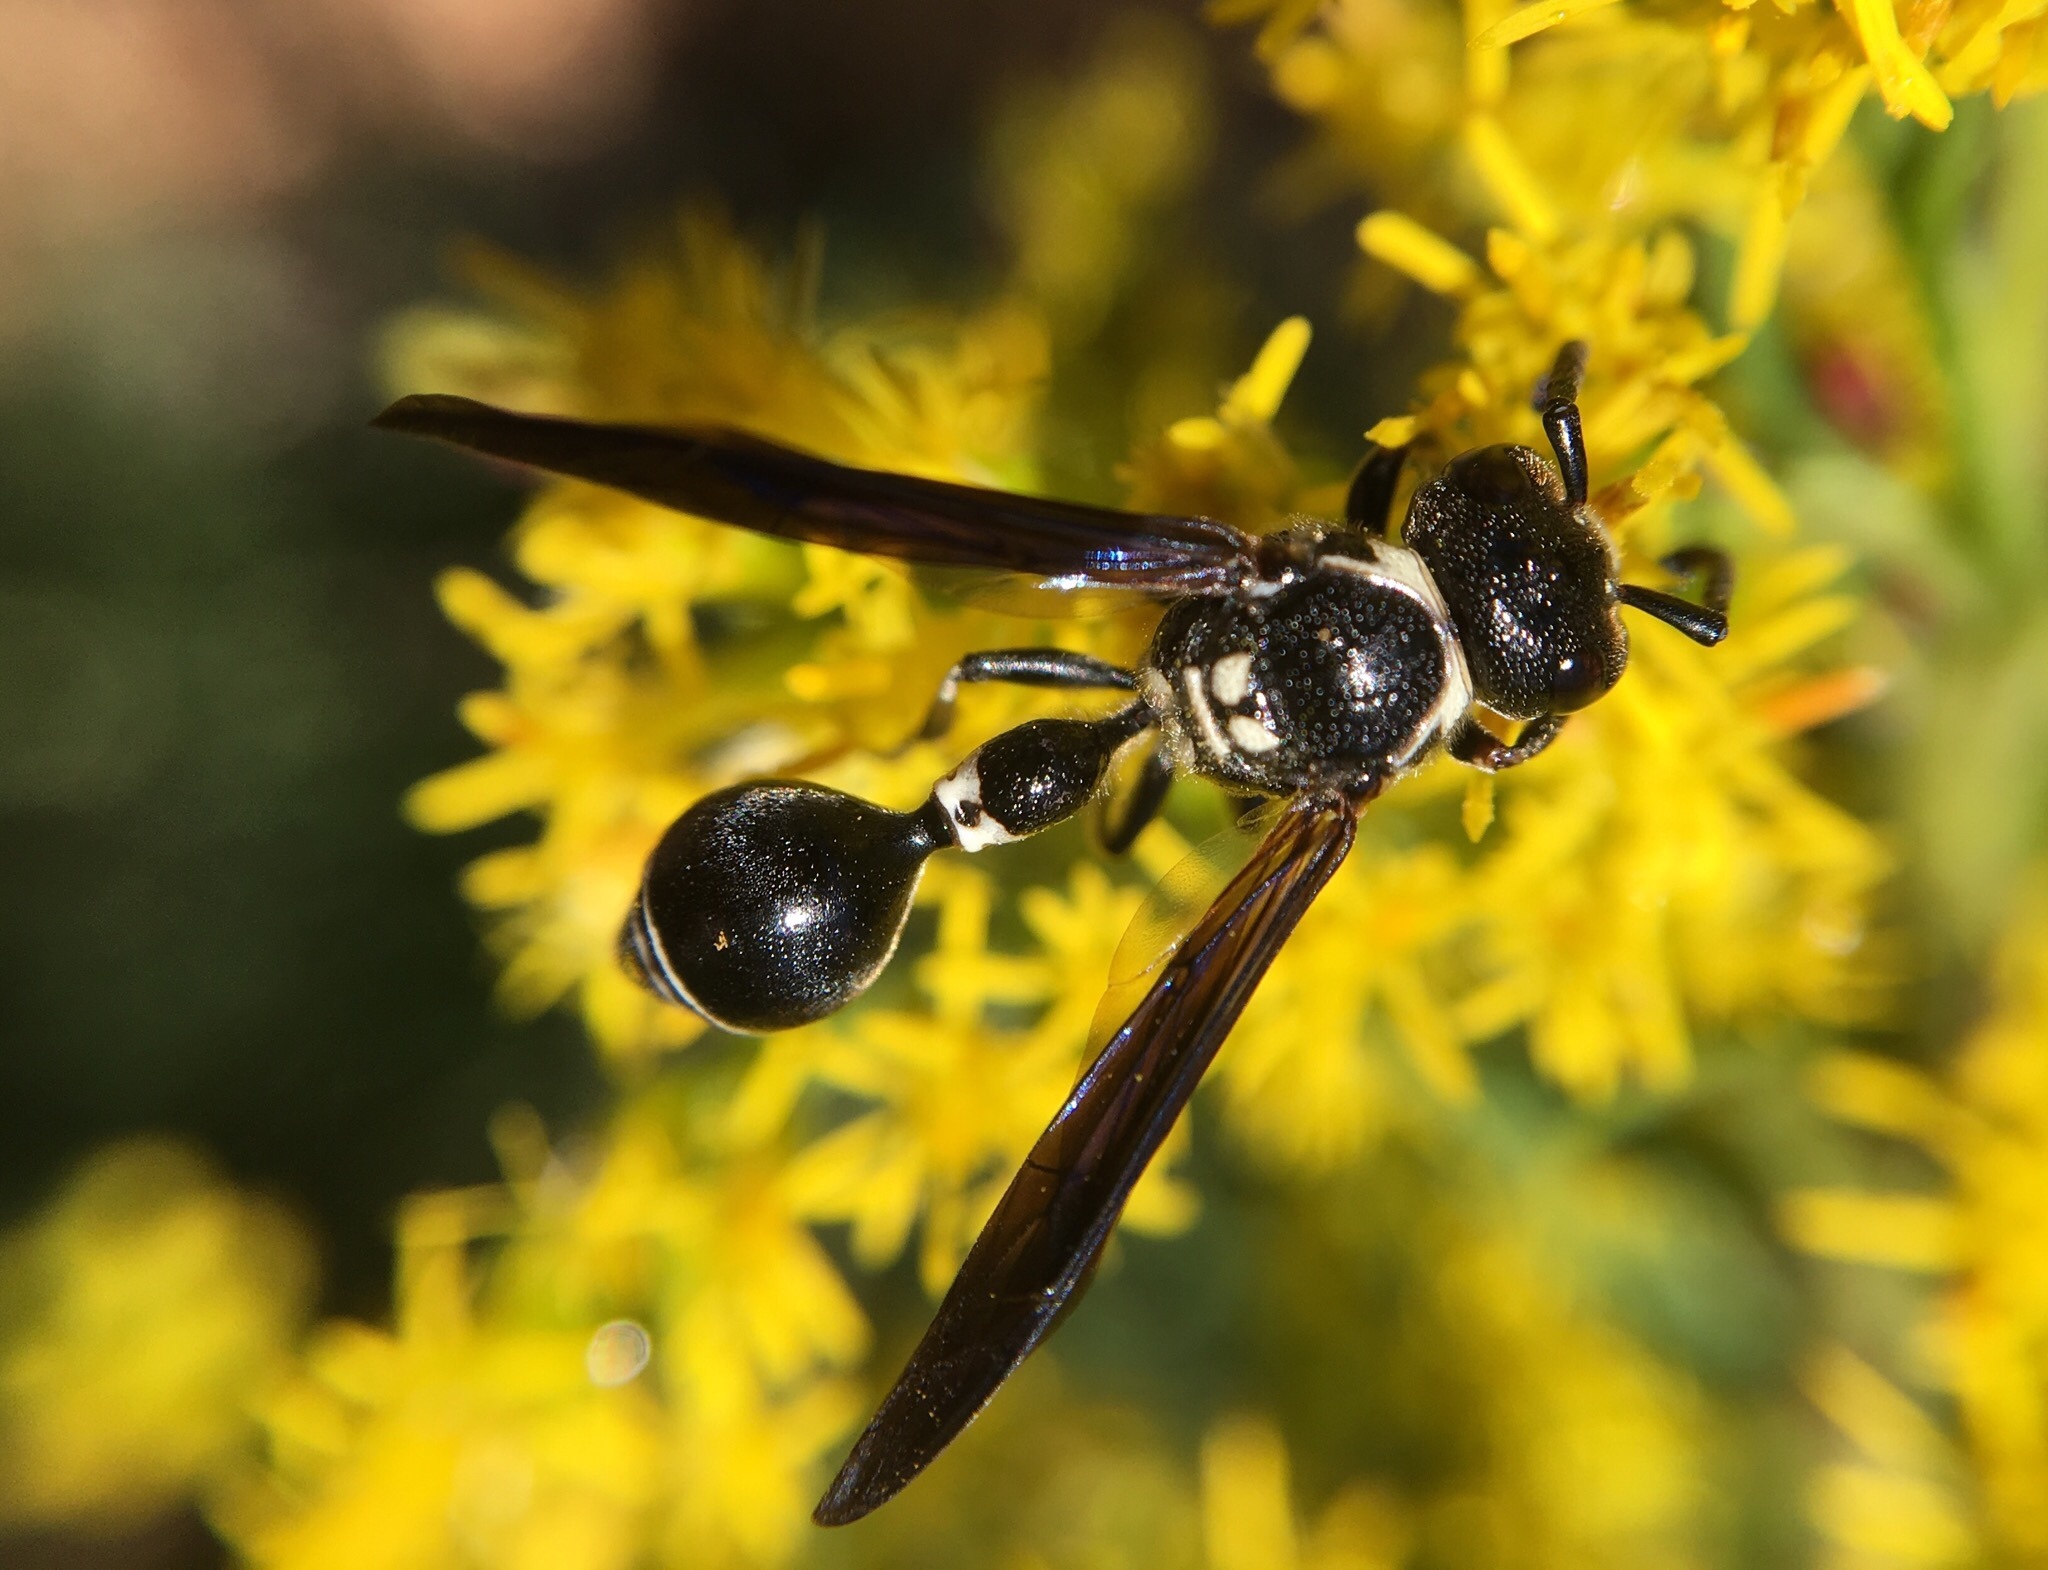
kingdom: Animalia
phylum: Arthropoda
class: Insecta
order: Hymenoptera
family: Eumenidae
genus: Zethus
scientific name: Zethus spinipes
